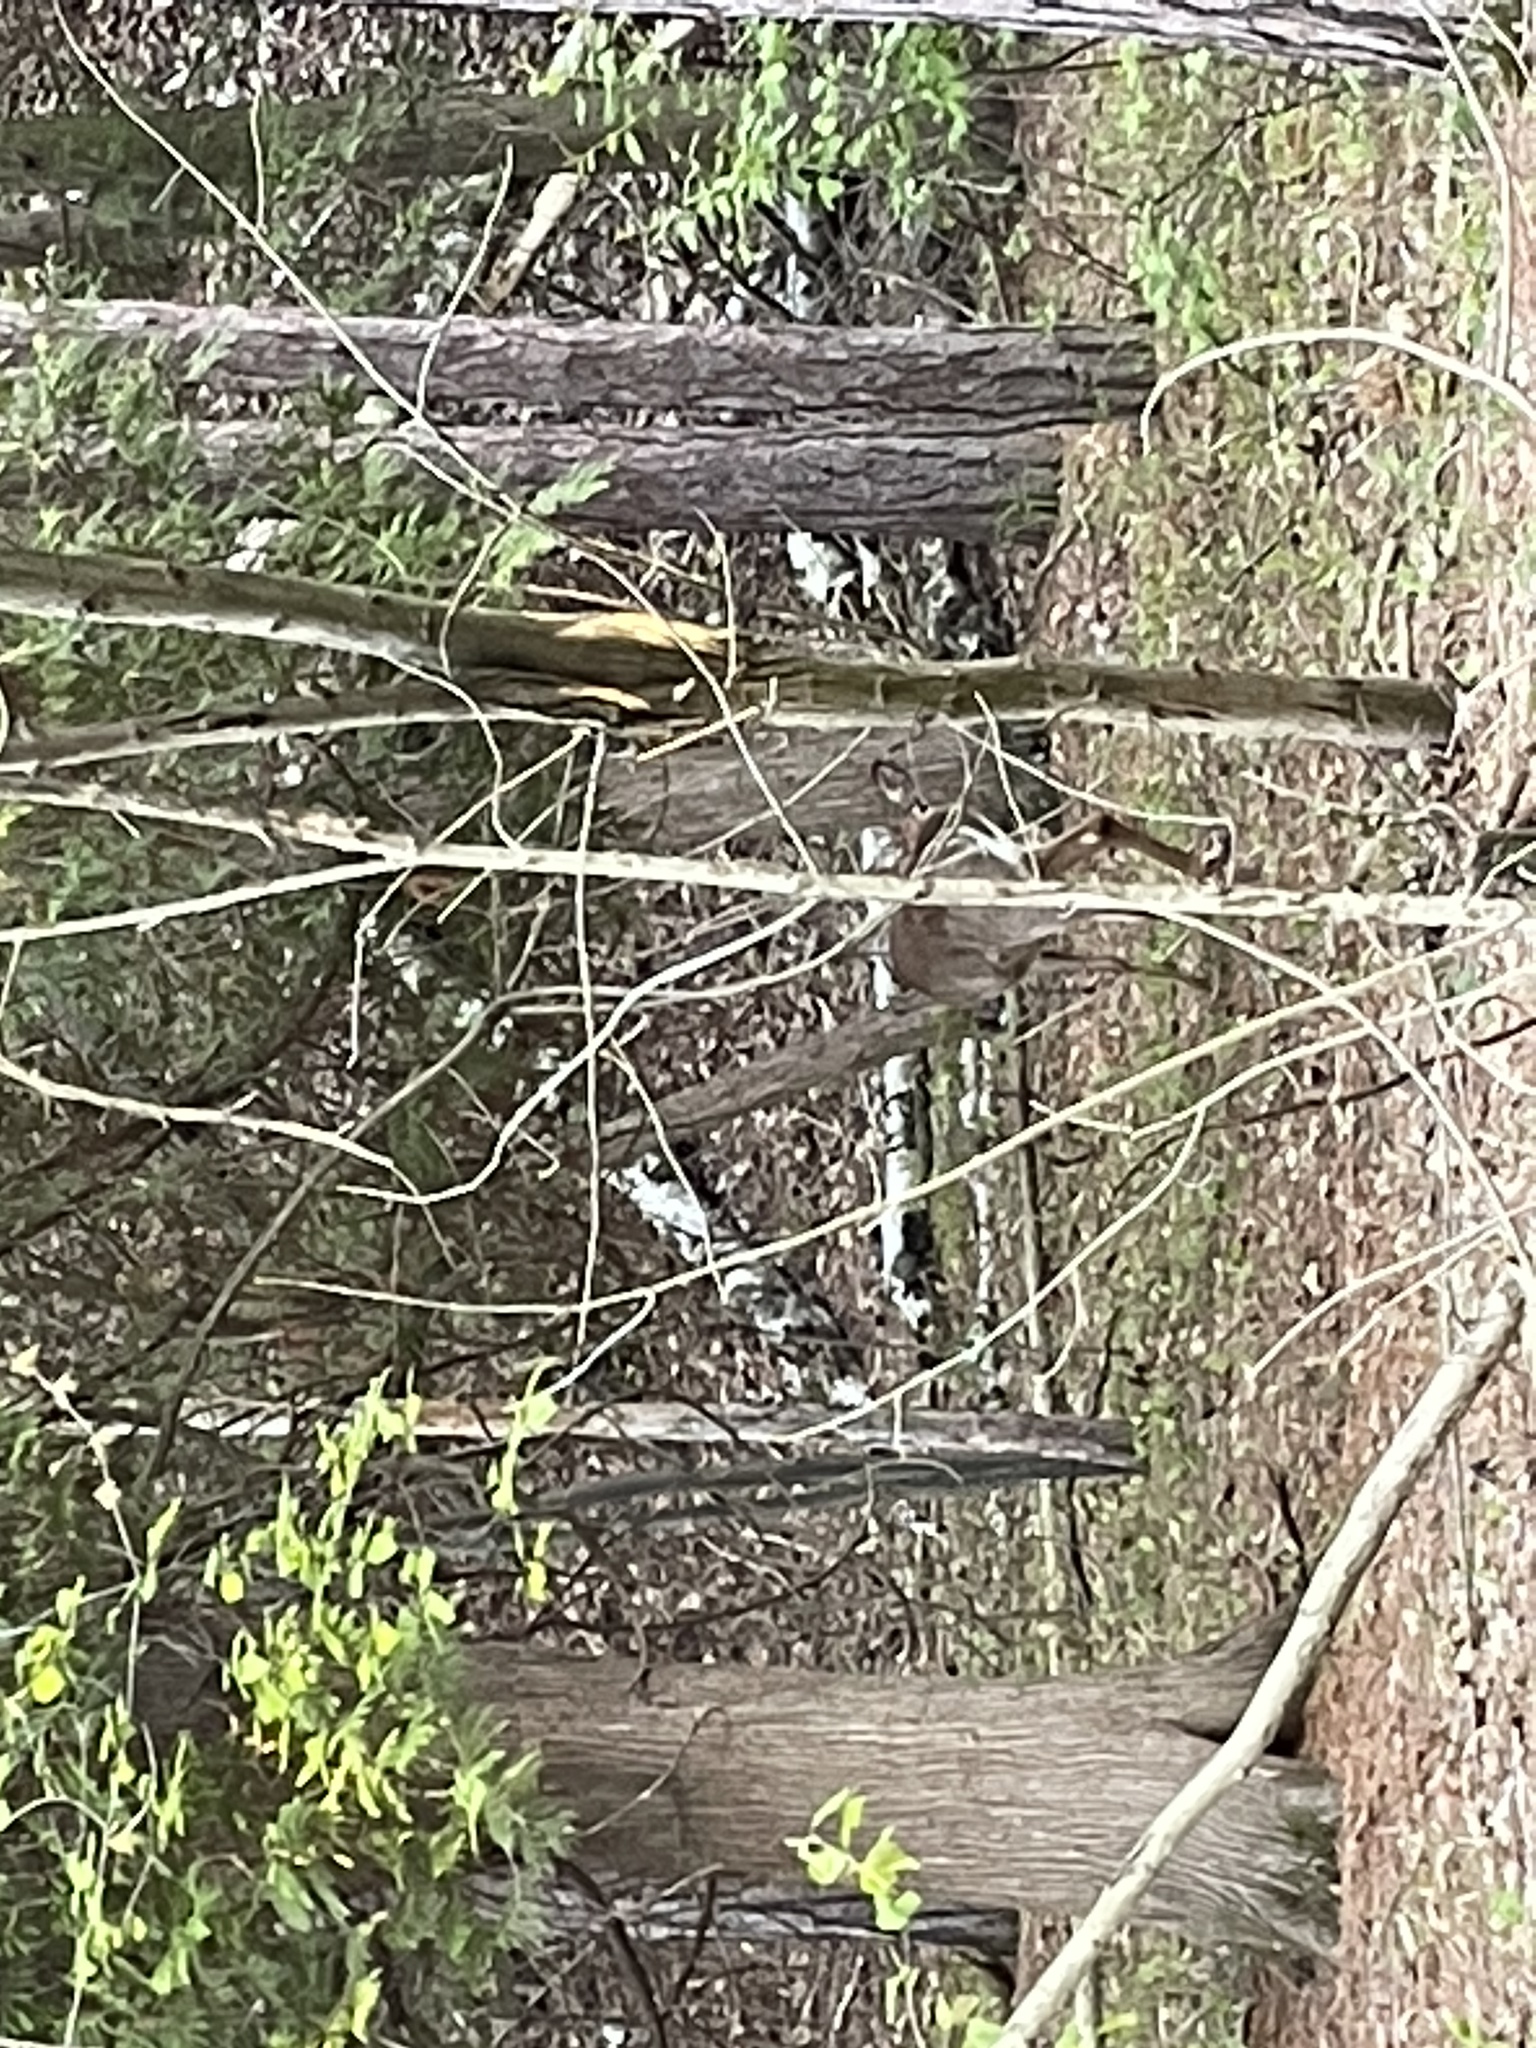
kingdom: Animalia
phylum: Chordata
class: Mammalia
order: Artiodactyla
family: Cervidae
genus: Odocoileus
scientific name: Odocoileus virginianus
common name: White-tailed deer
